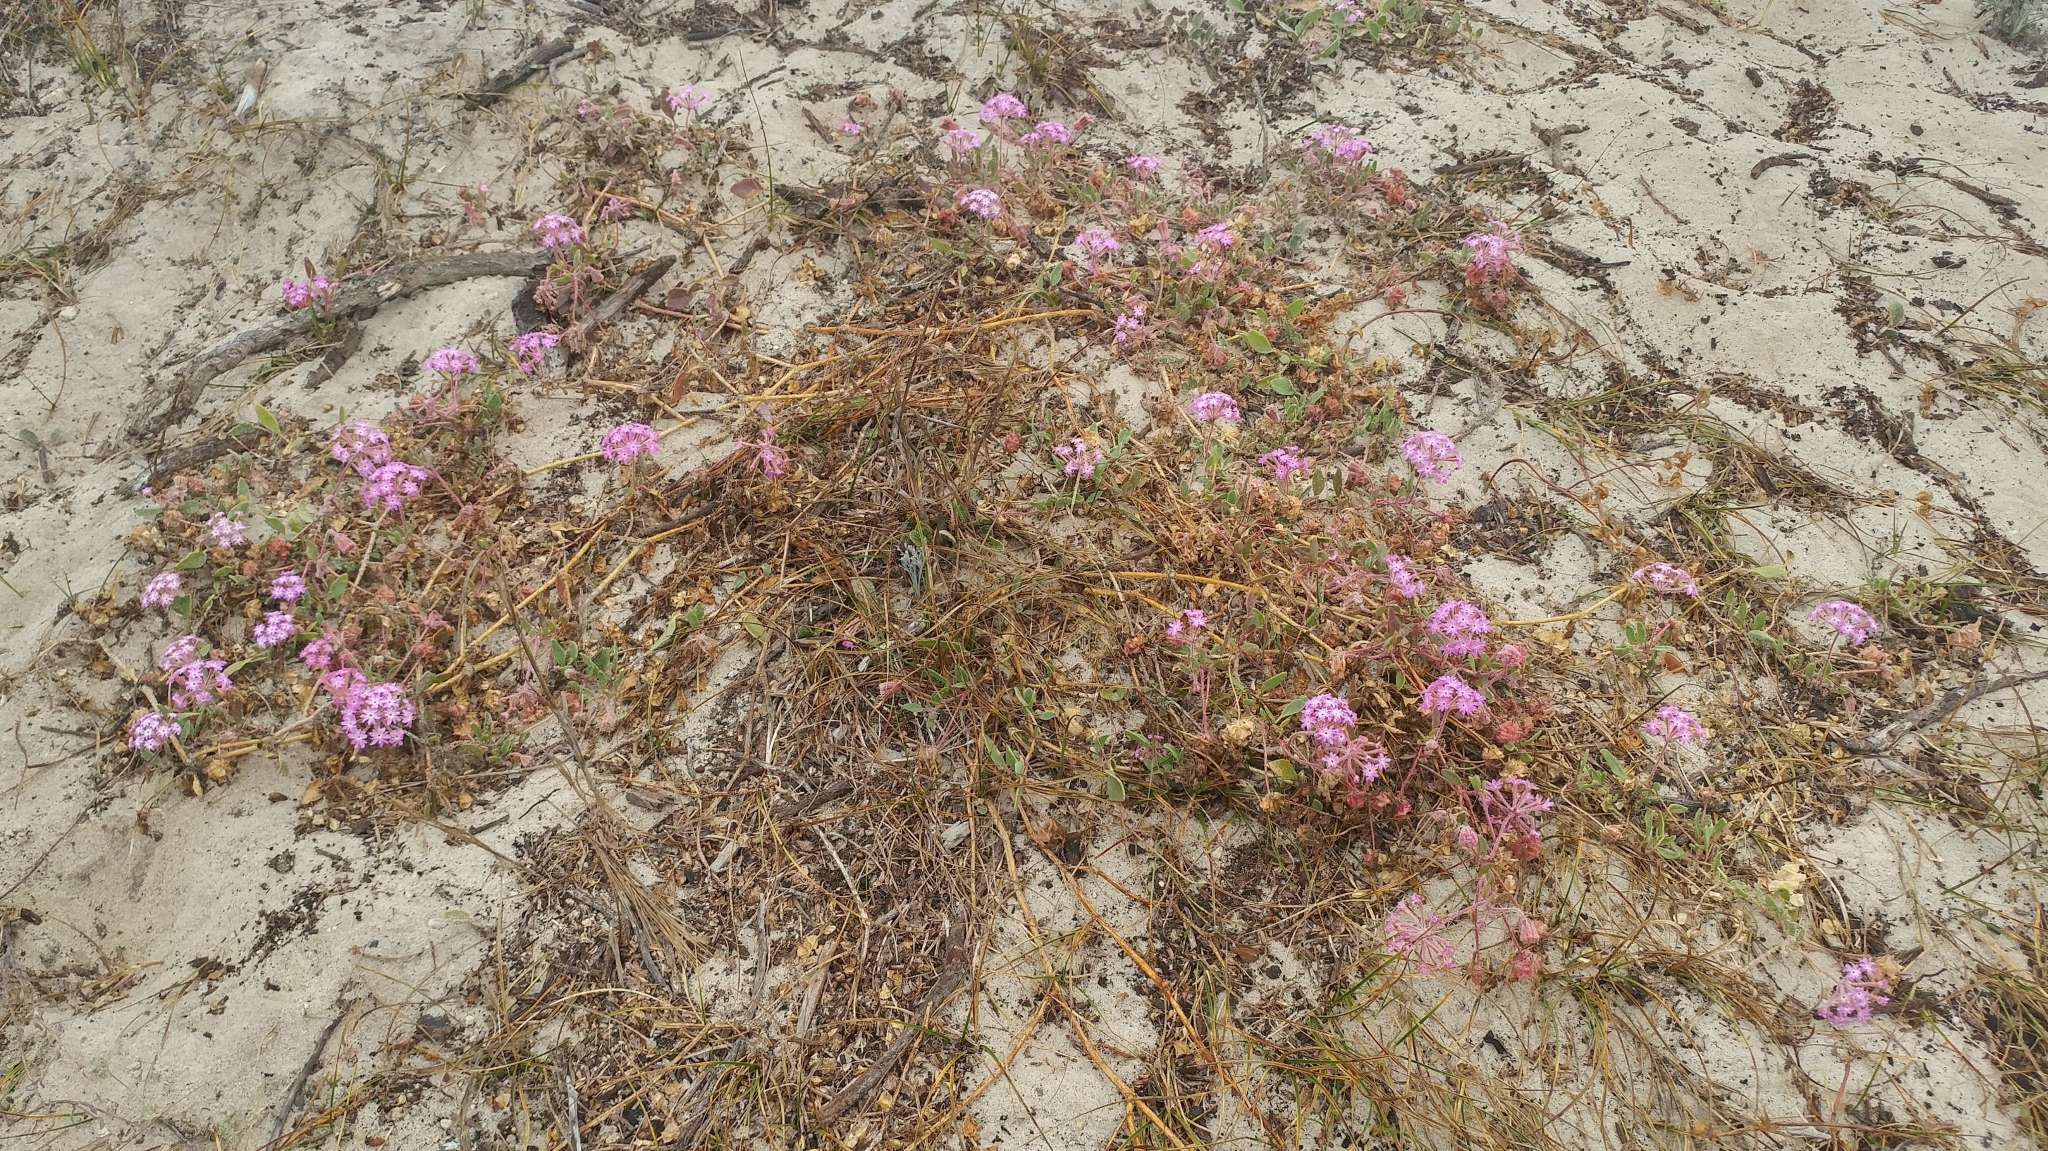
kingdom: Plantae
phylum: Tracheophyta
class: Magnoliopsida
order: Caryophyllales
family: Nyctaginaceae
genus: Abronia
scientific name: Abronia umbellata
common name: Sand-verbena
